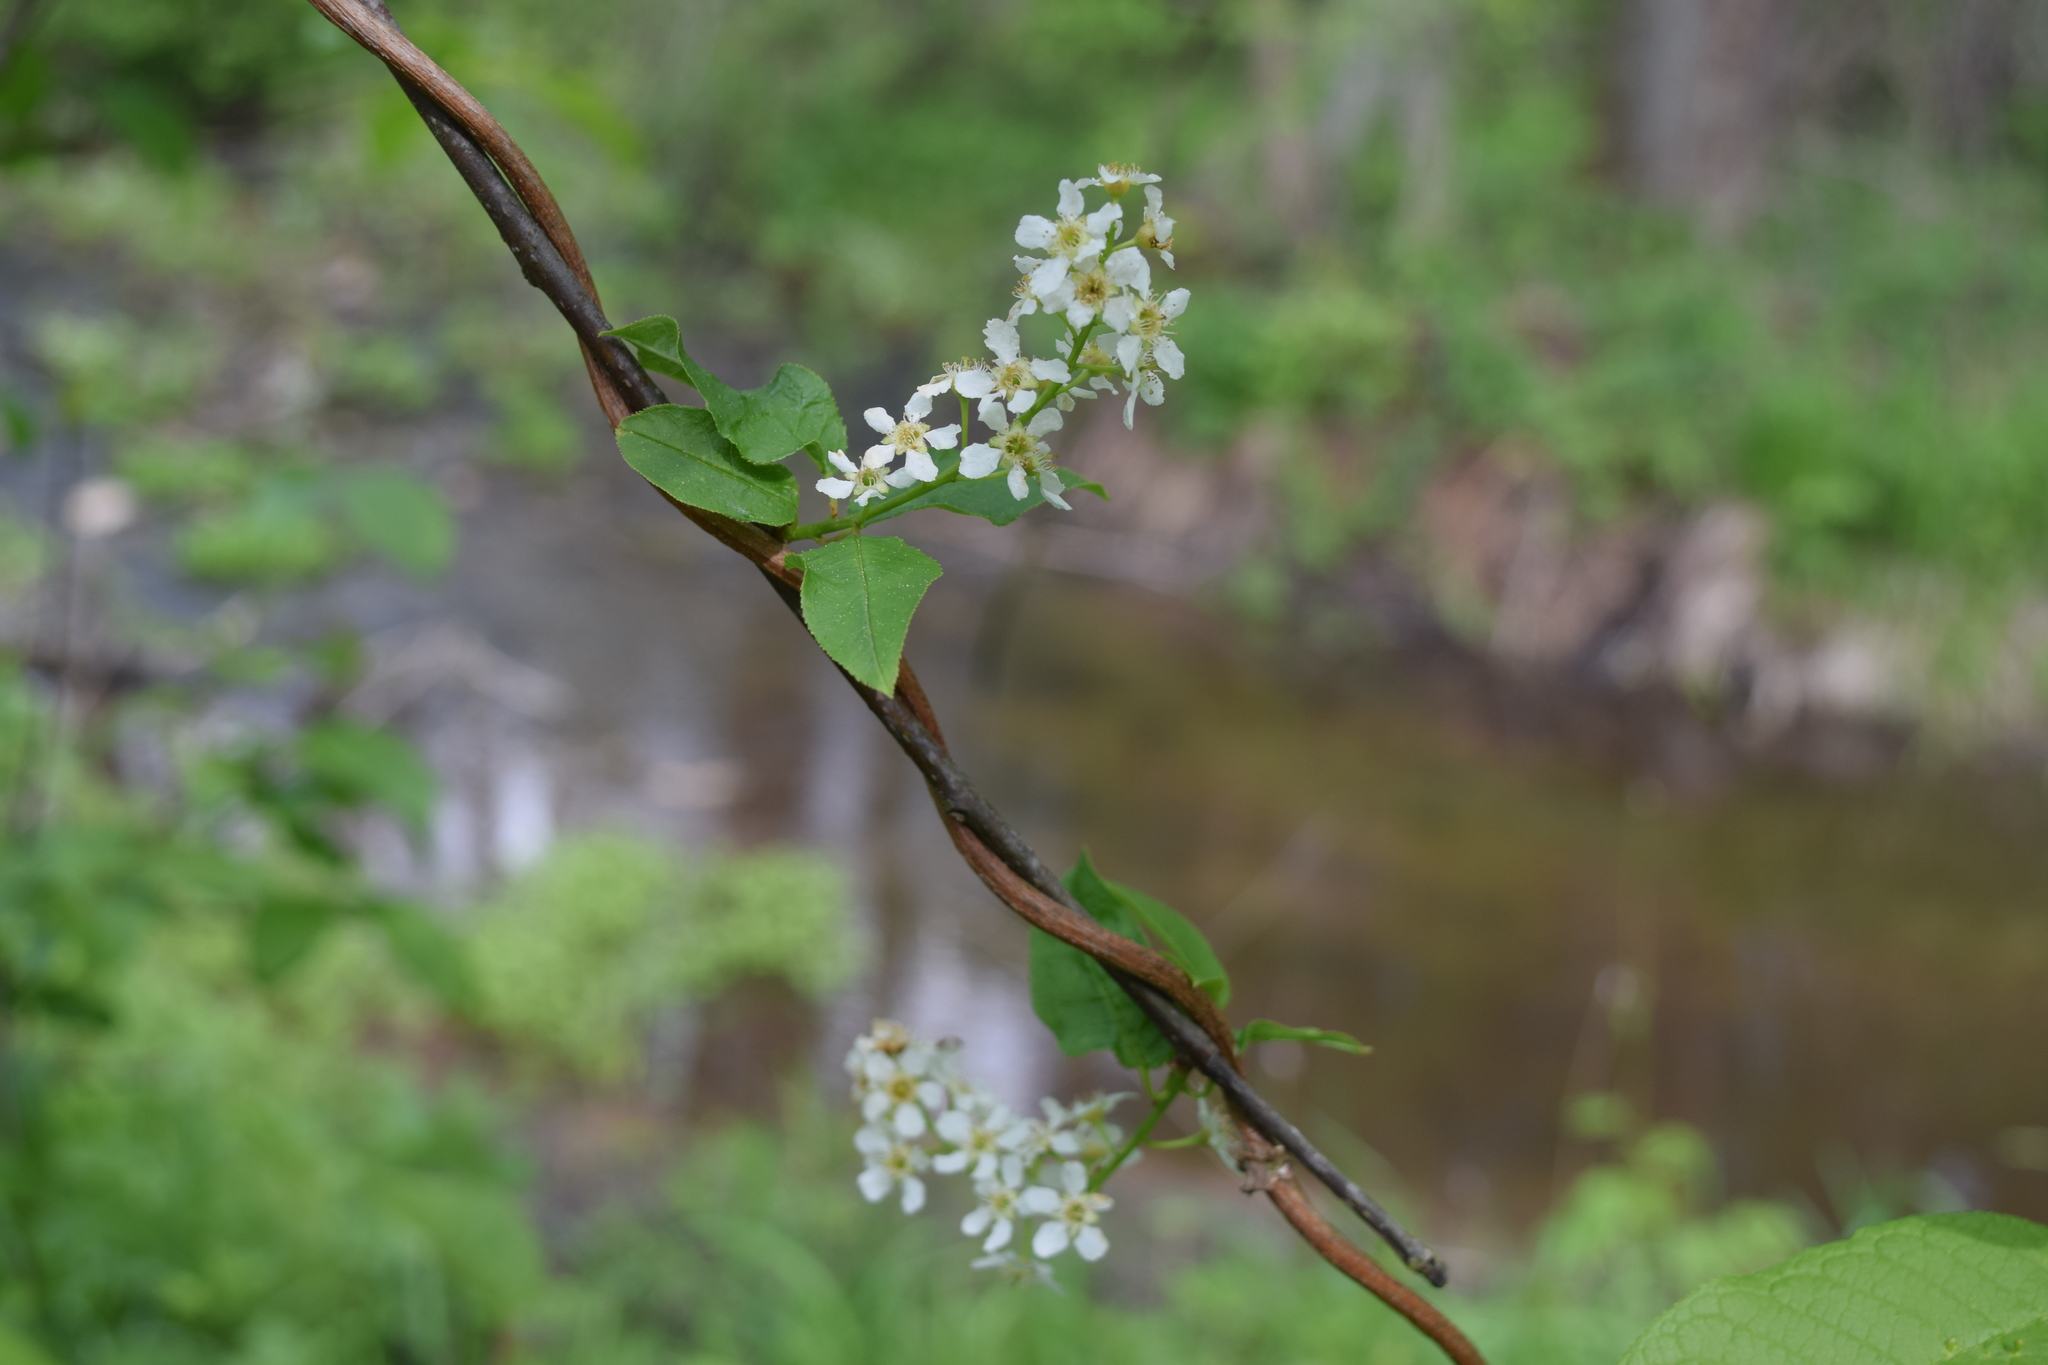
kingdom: Plantae
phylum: Tracheophyta
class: Magnoliopsida
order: Rosales
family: Rosaceae
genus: Prunus
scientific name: Prunus padus
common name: Bird cherry
